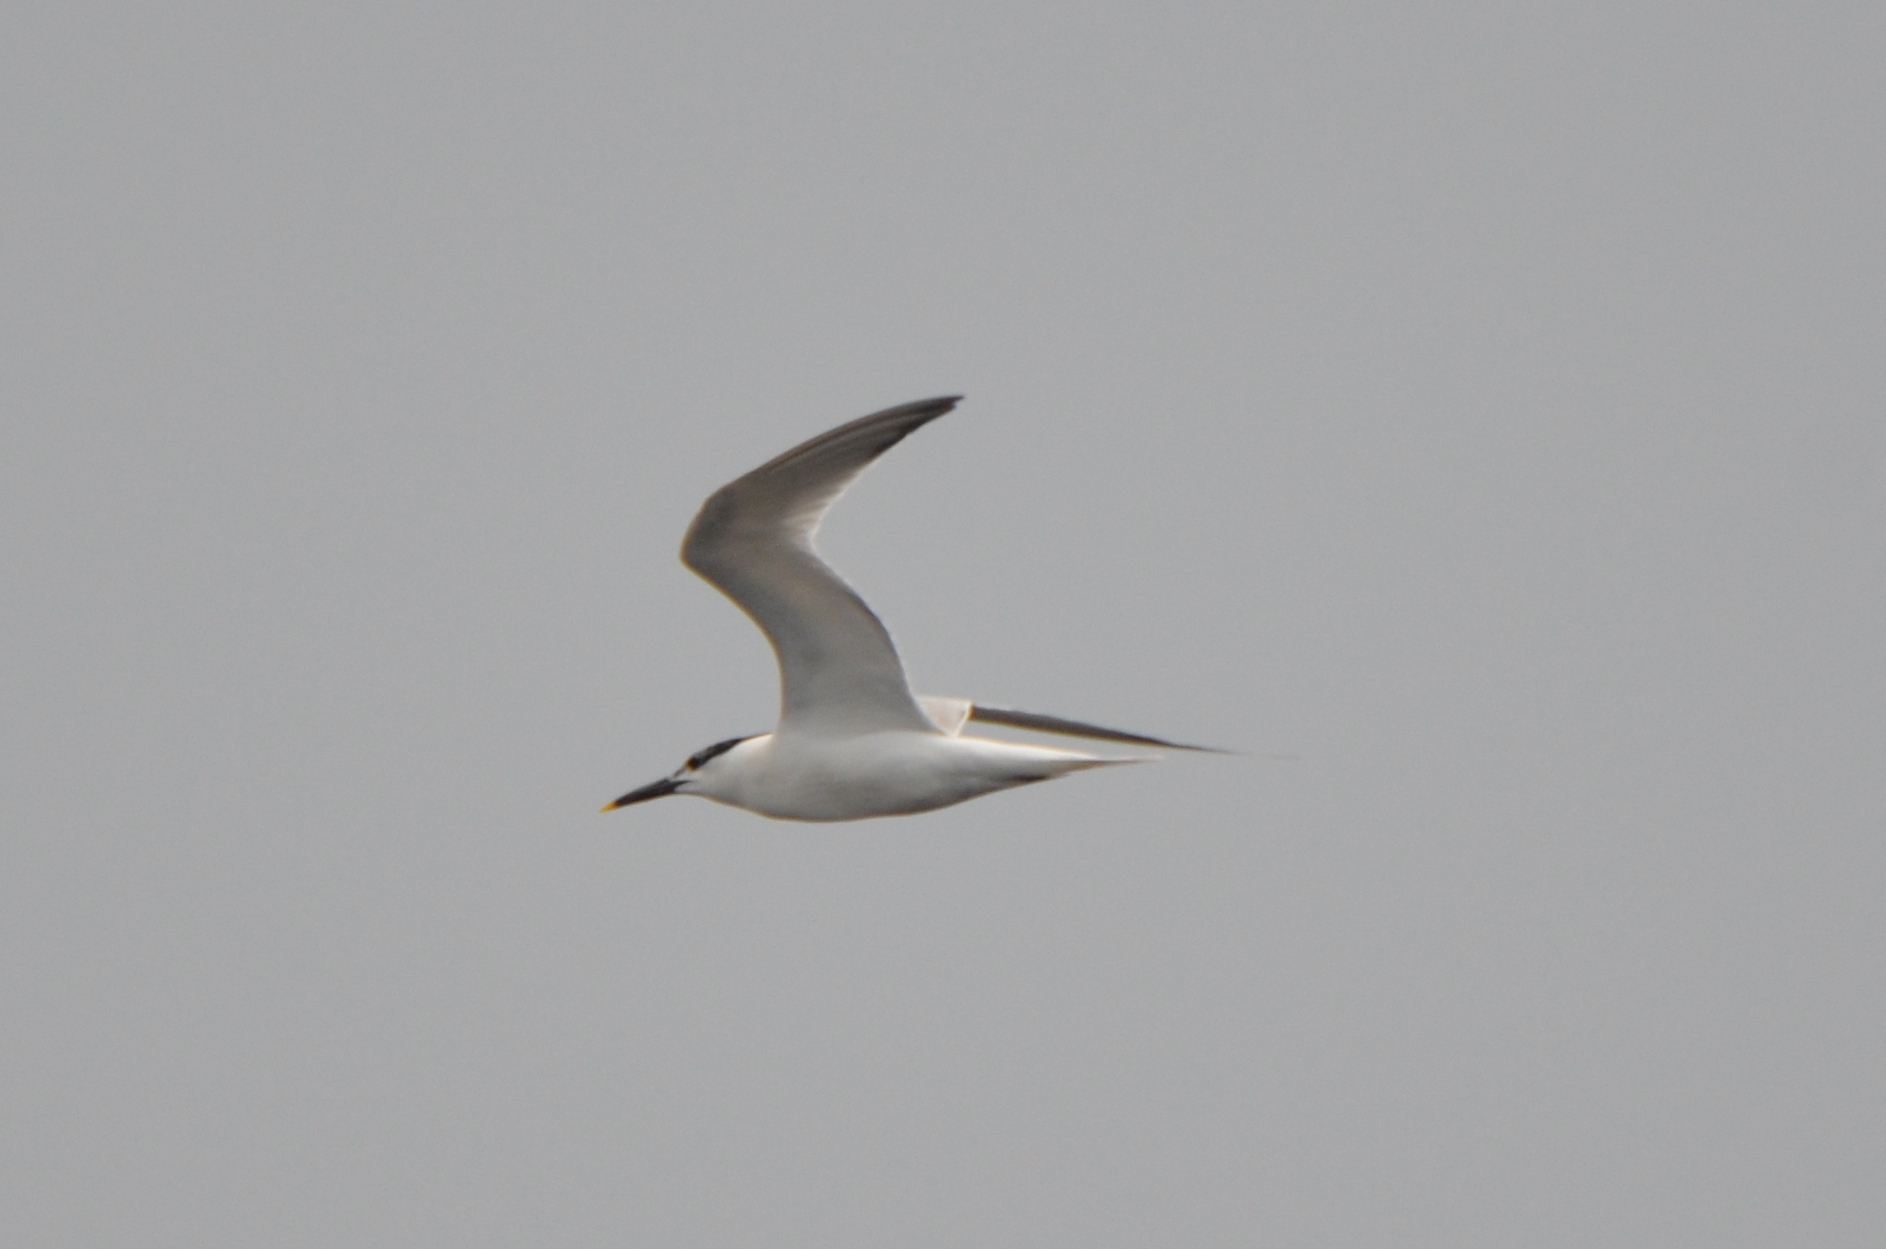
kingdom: Animalia
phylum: Chordata
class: Aves
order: Charadriiformes
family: Laridae
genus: Thalasseus
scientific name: Thalasseus sandvicensis
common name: Sandwich tern
